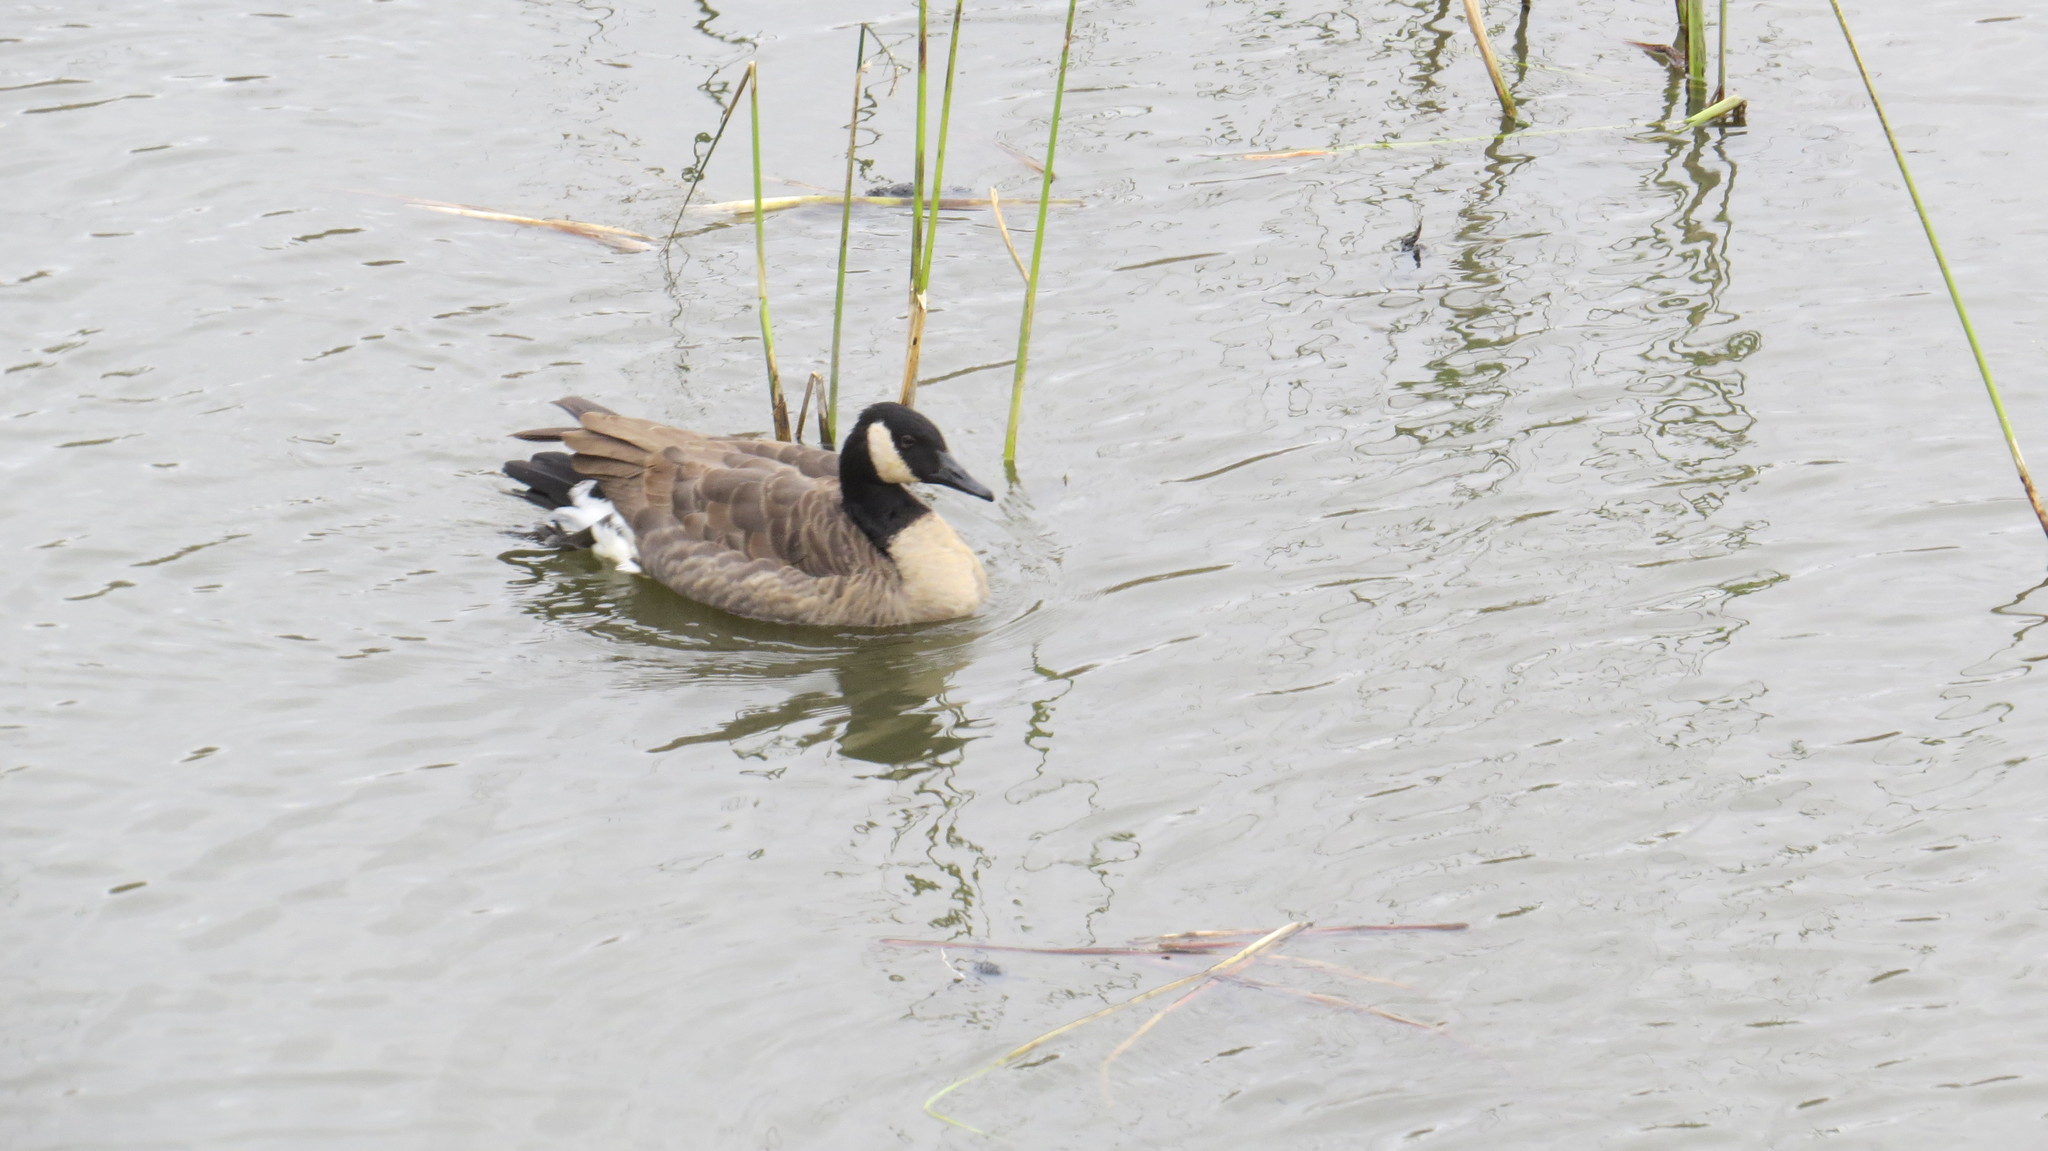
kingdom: Animalia
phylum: Chordata
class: Aves
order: Anseriformes
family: Anatidae
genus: Branta
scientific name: Branta canadensis
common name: Canada goose
